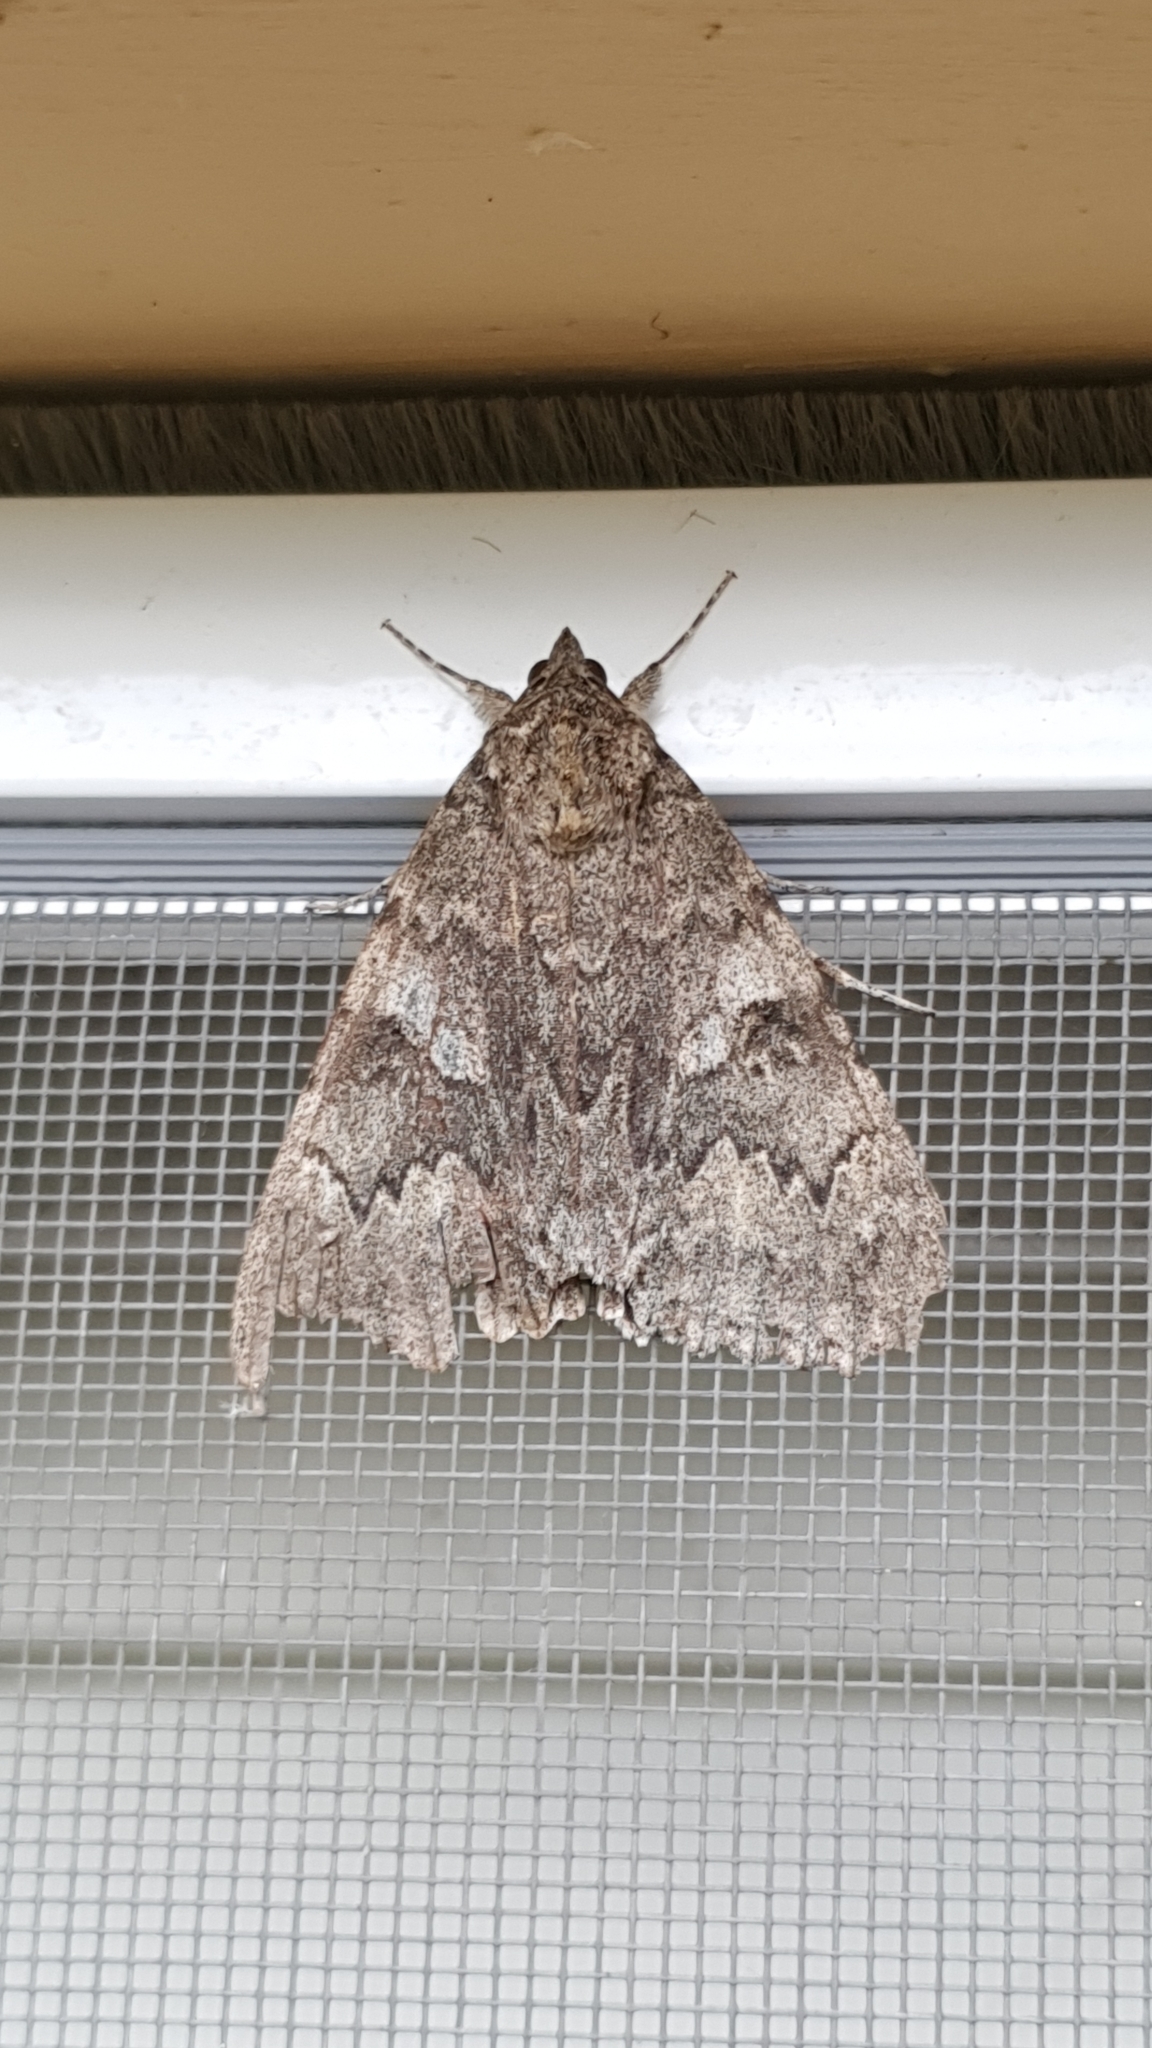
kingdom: Animalia
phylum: Arthropoda
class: Insecta
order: Lepidoptera
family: Erebidae
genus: Catocala
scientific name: Catocala nupta
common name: Red underwing
